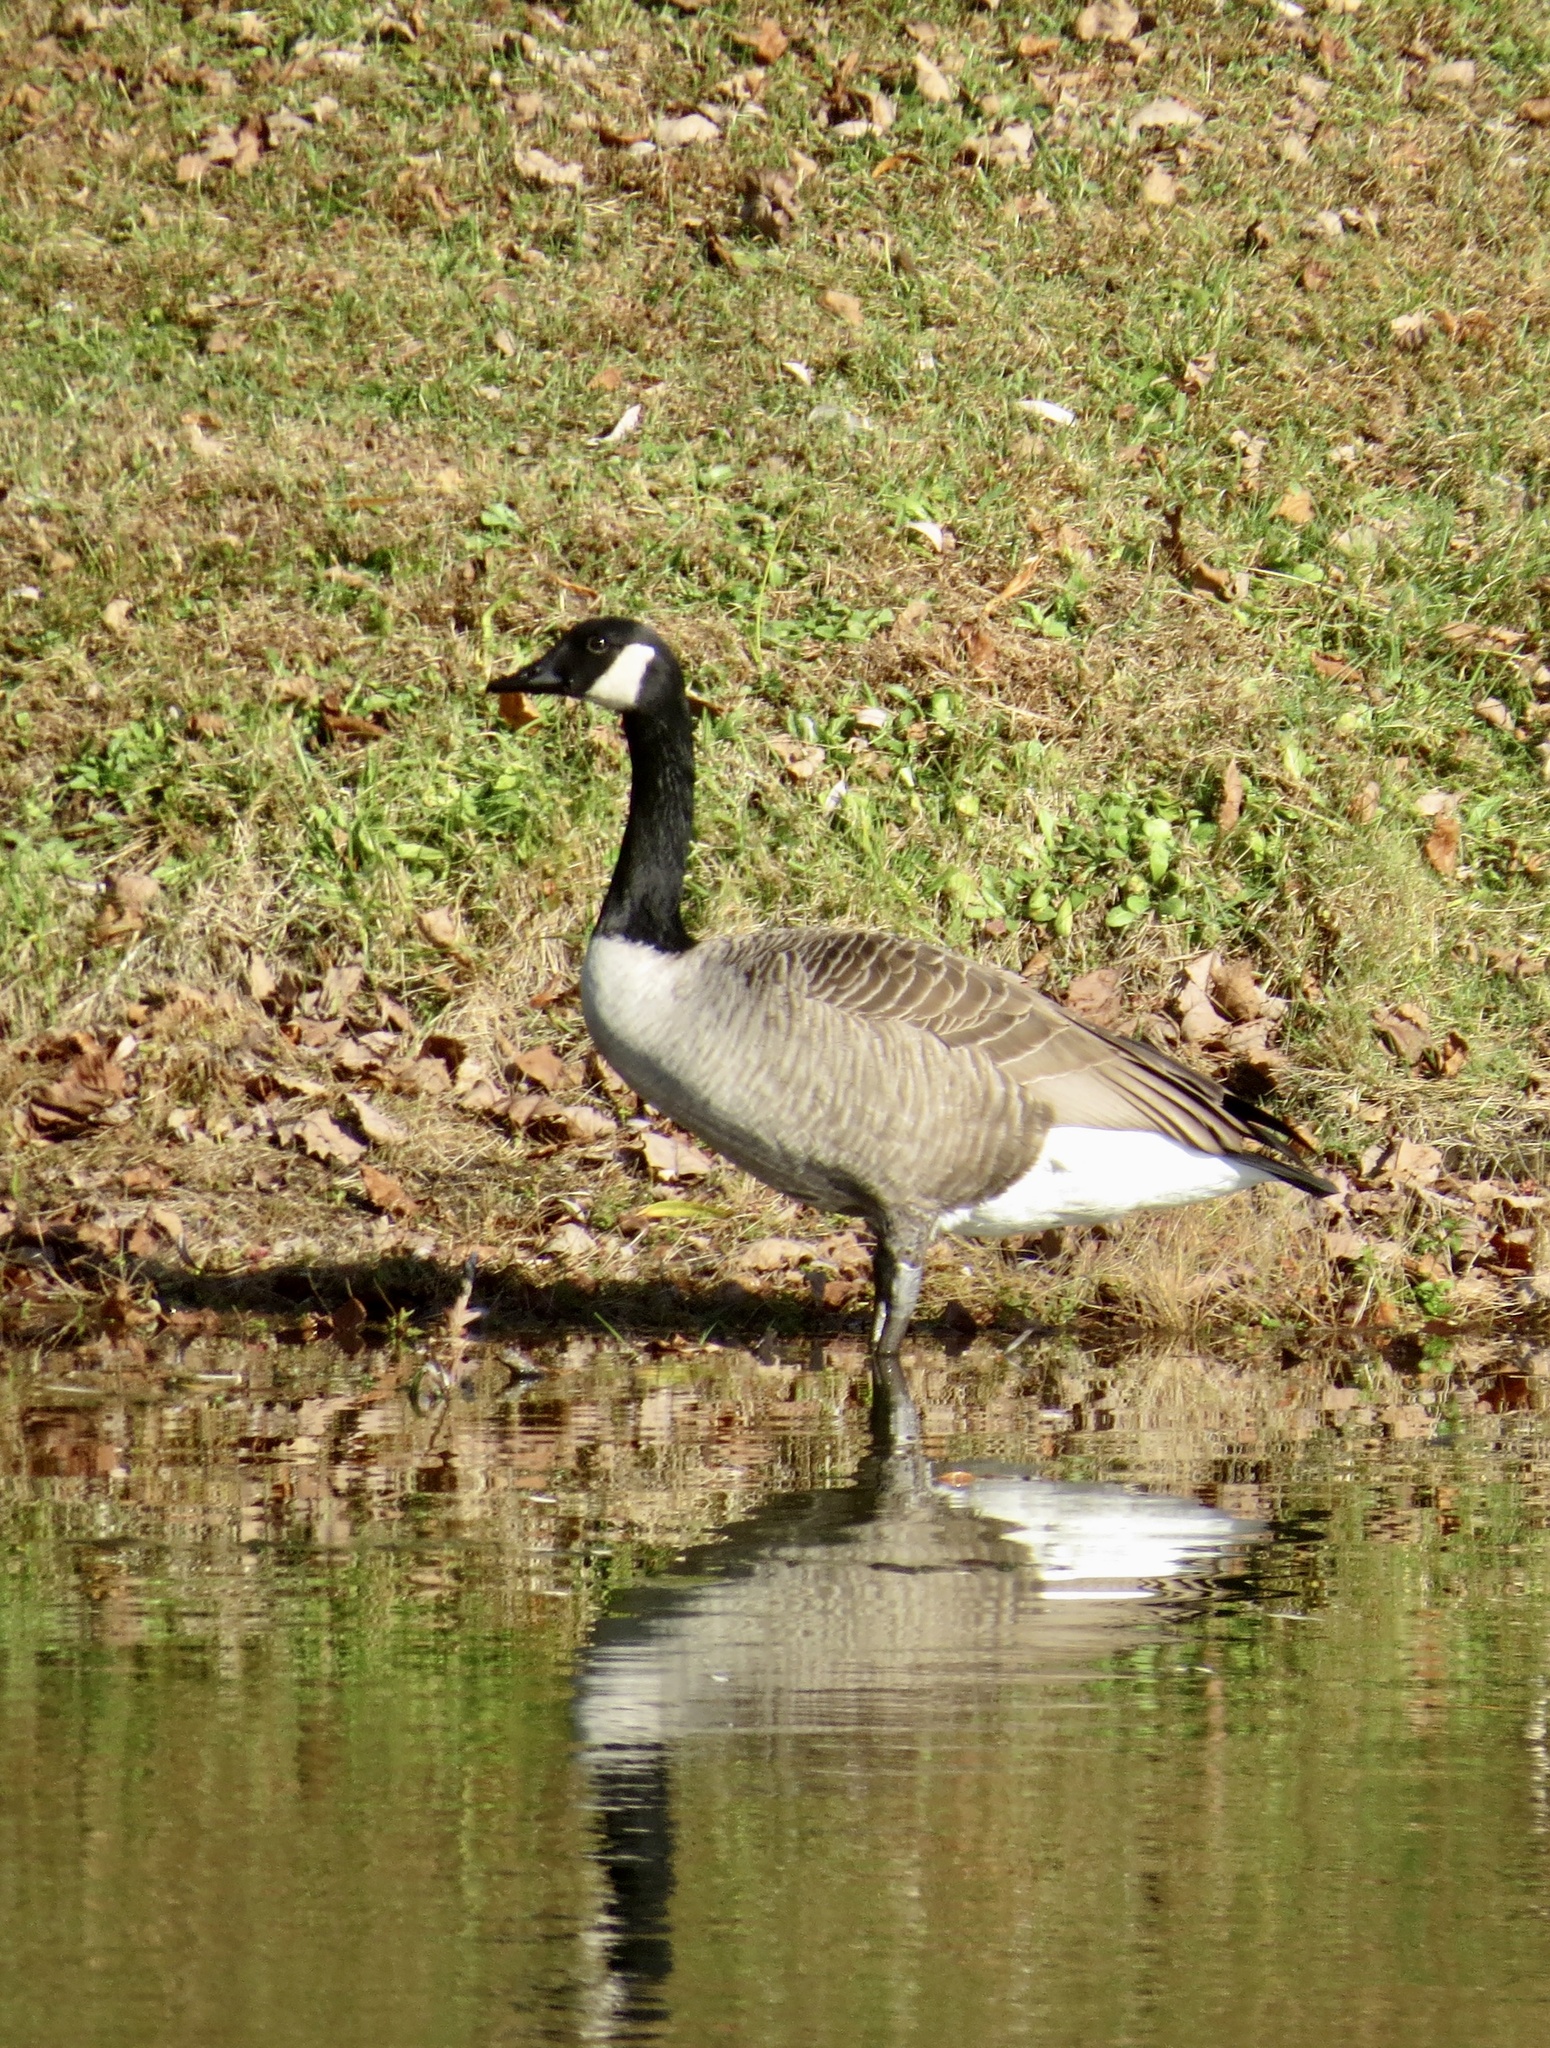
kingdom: Animalia
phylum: Chordata
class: Aves
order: Anseriformes
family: Anatidae
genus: Branta
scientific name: Branta canadensis
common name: Canada goose
